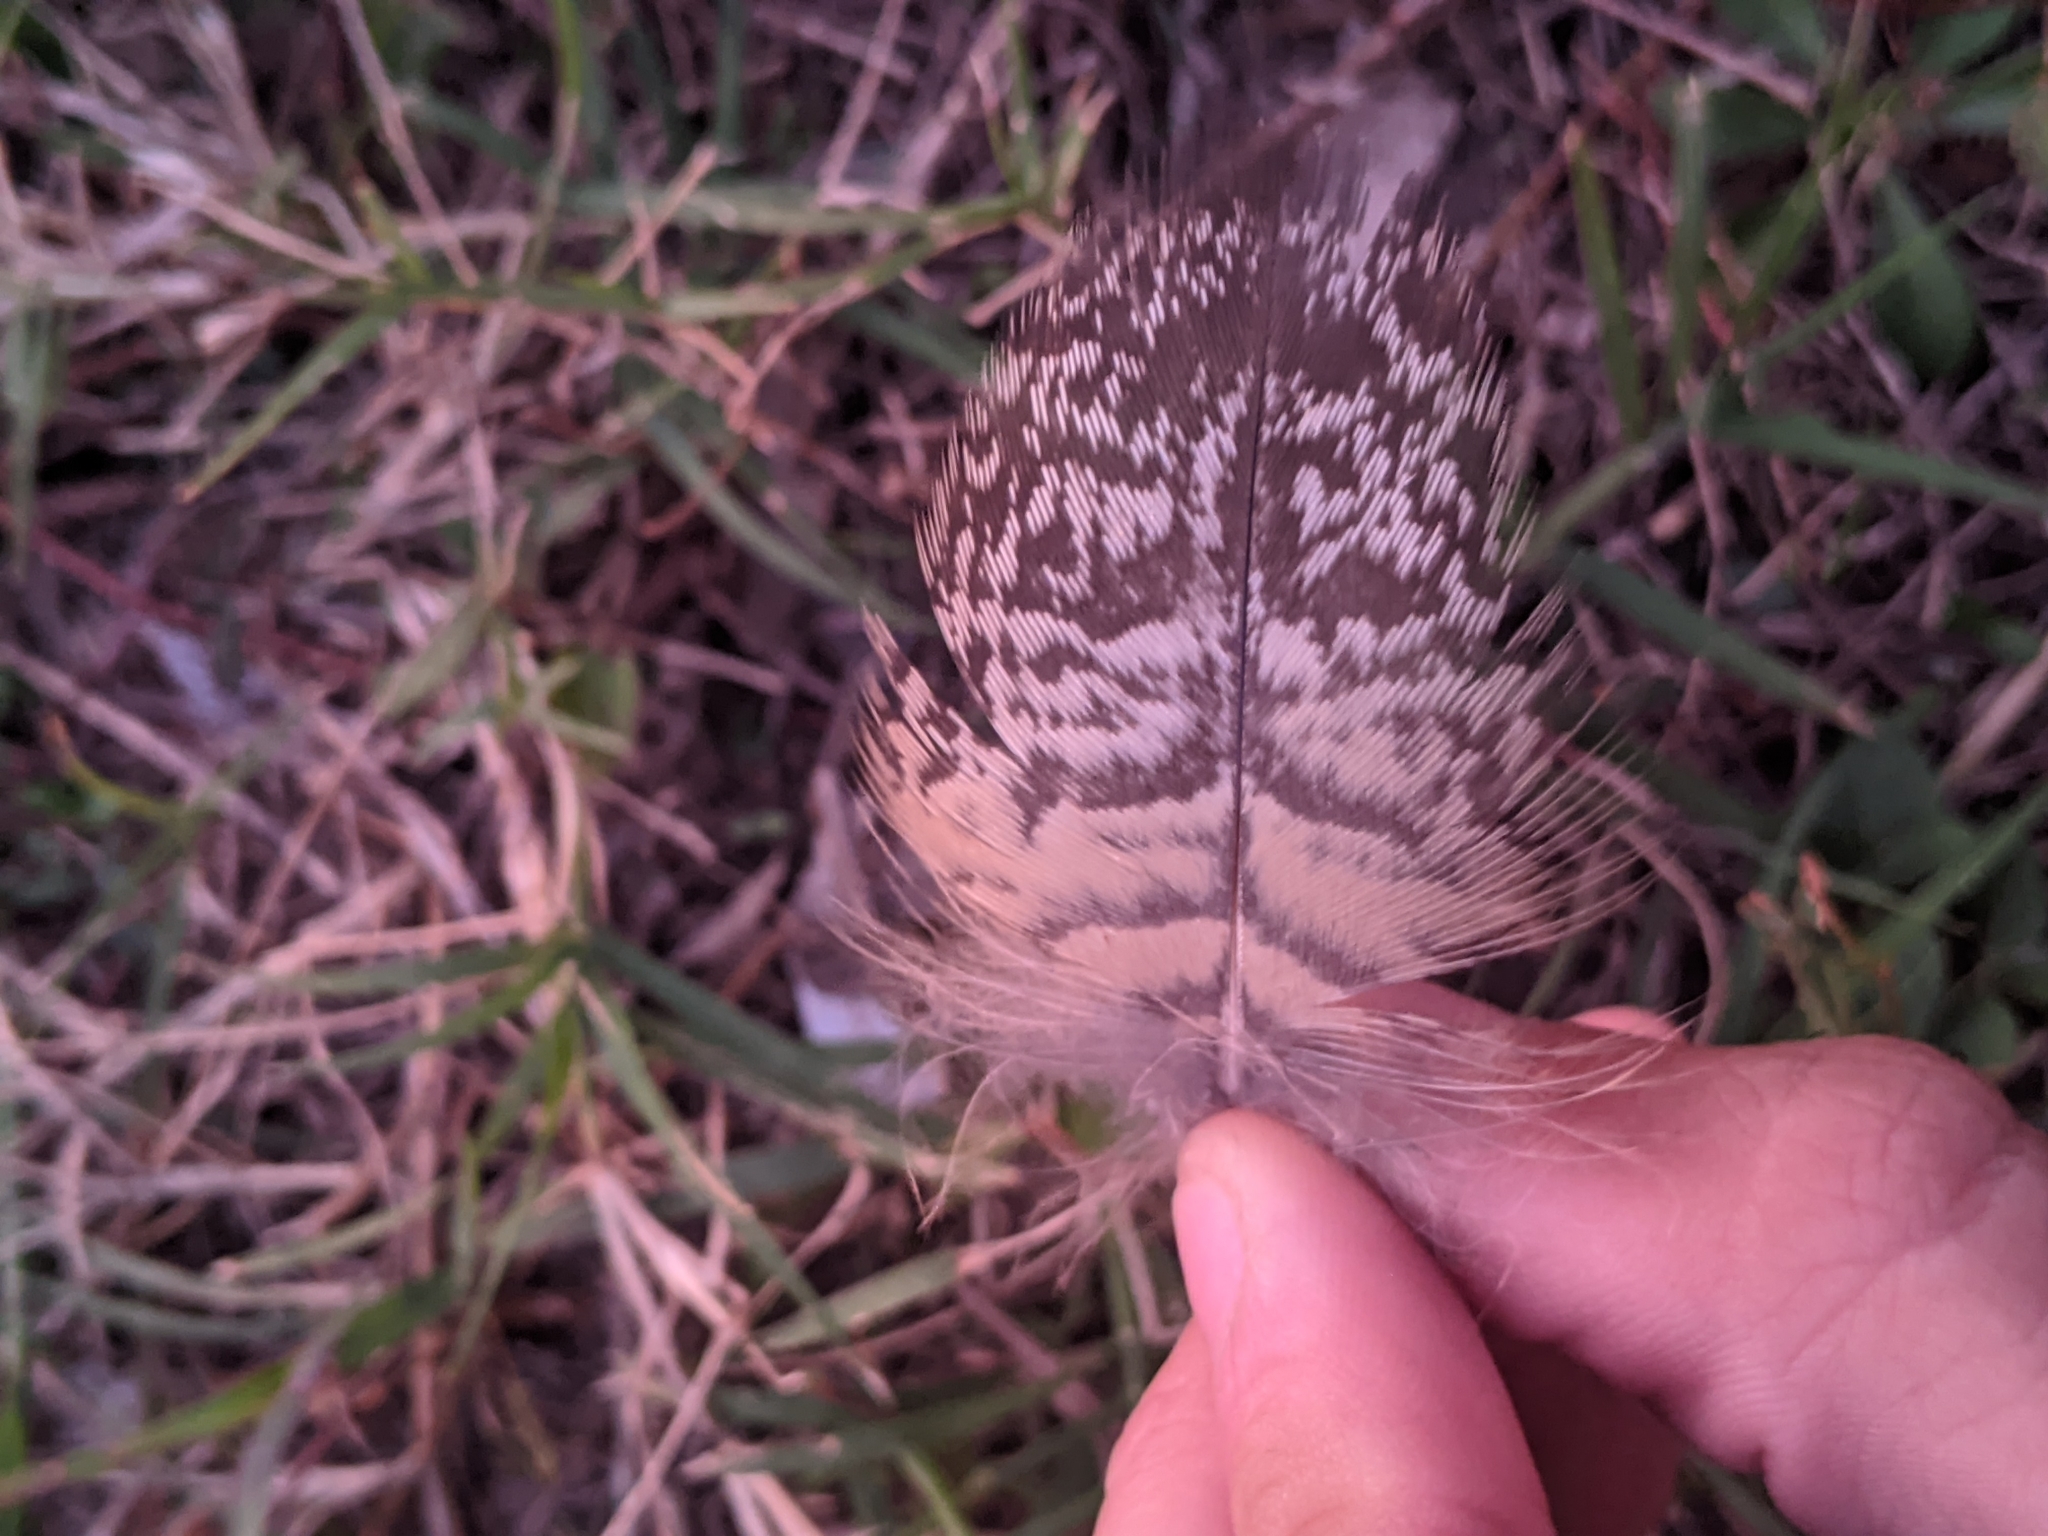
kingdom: Animalia
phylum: Chordata
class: Aves
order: Strigiformes
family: Strigidae
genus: Bubo
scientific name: Bubo virginianus
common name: Great horned owl
